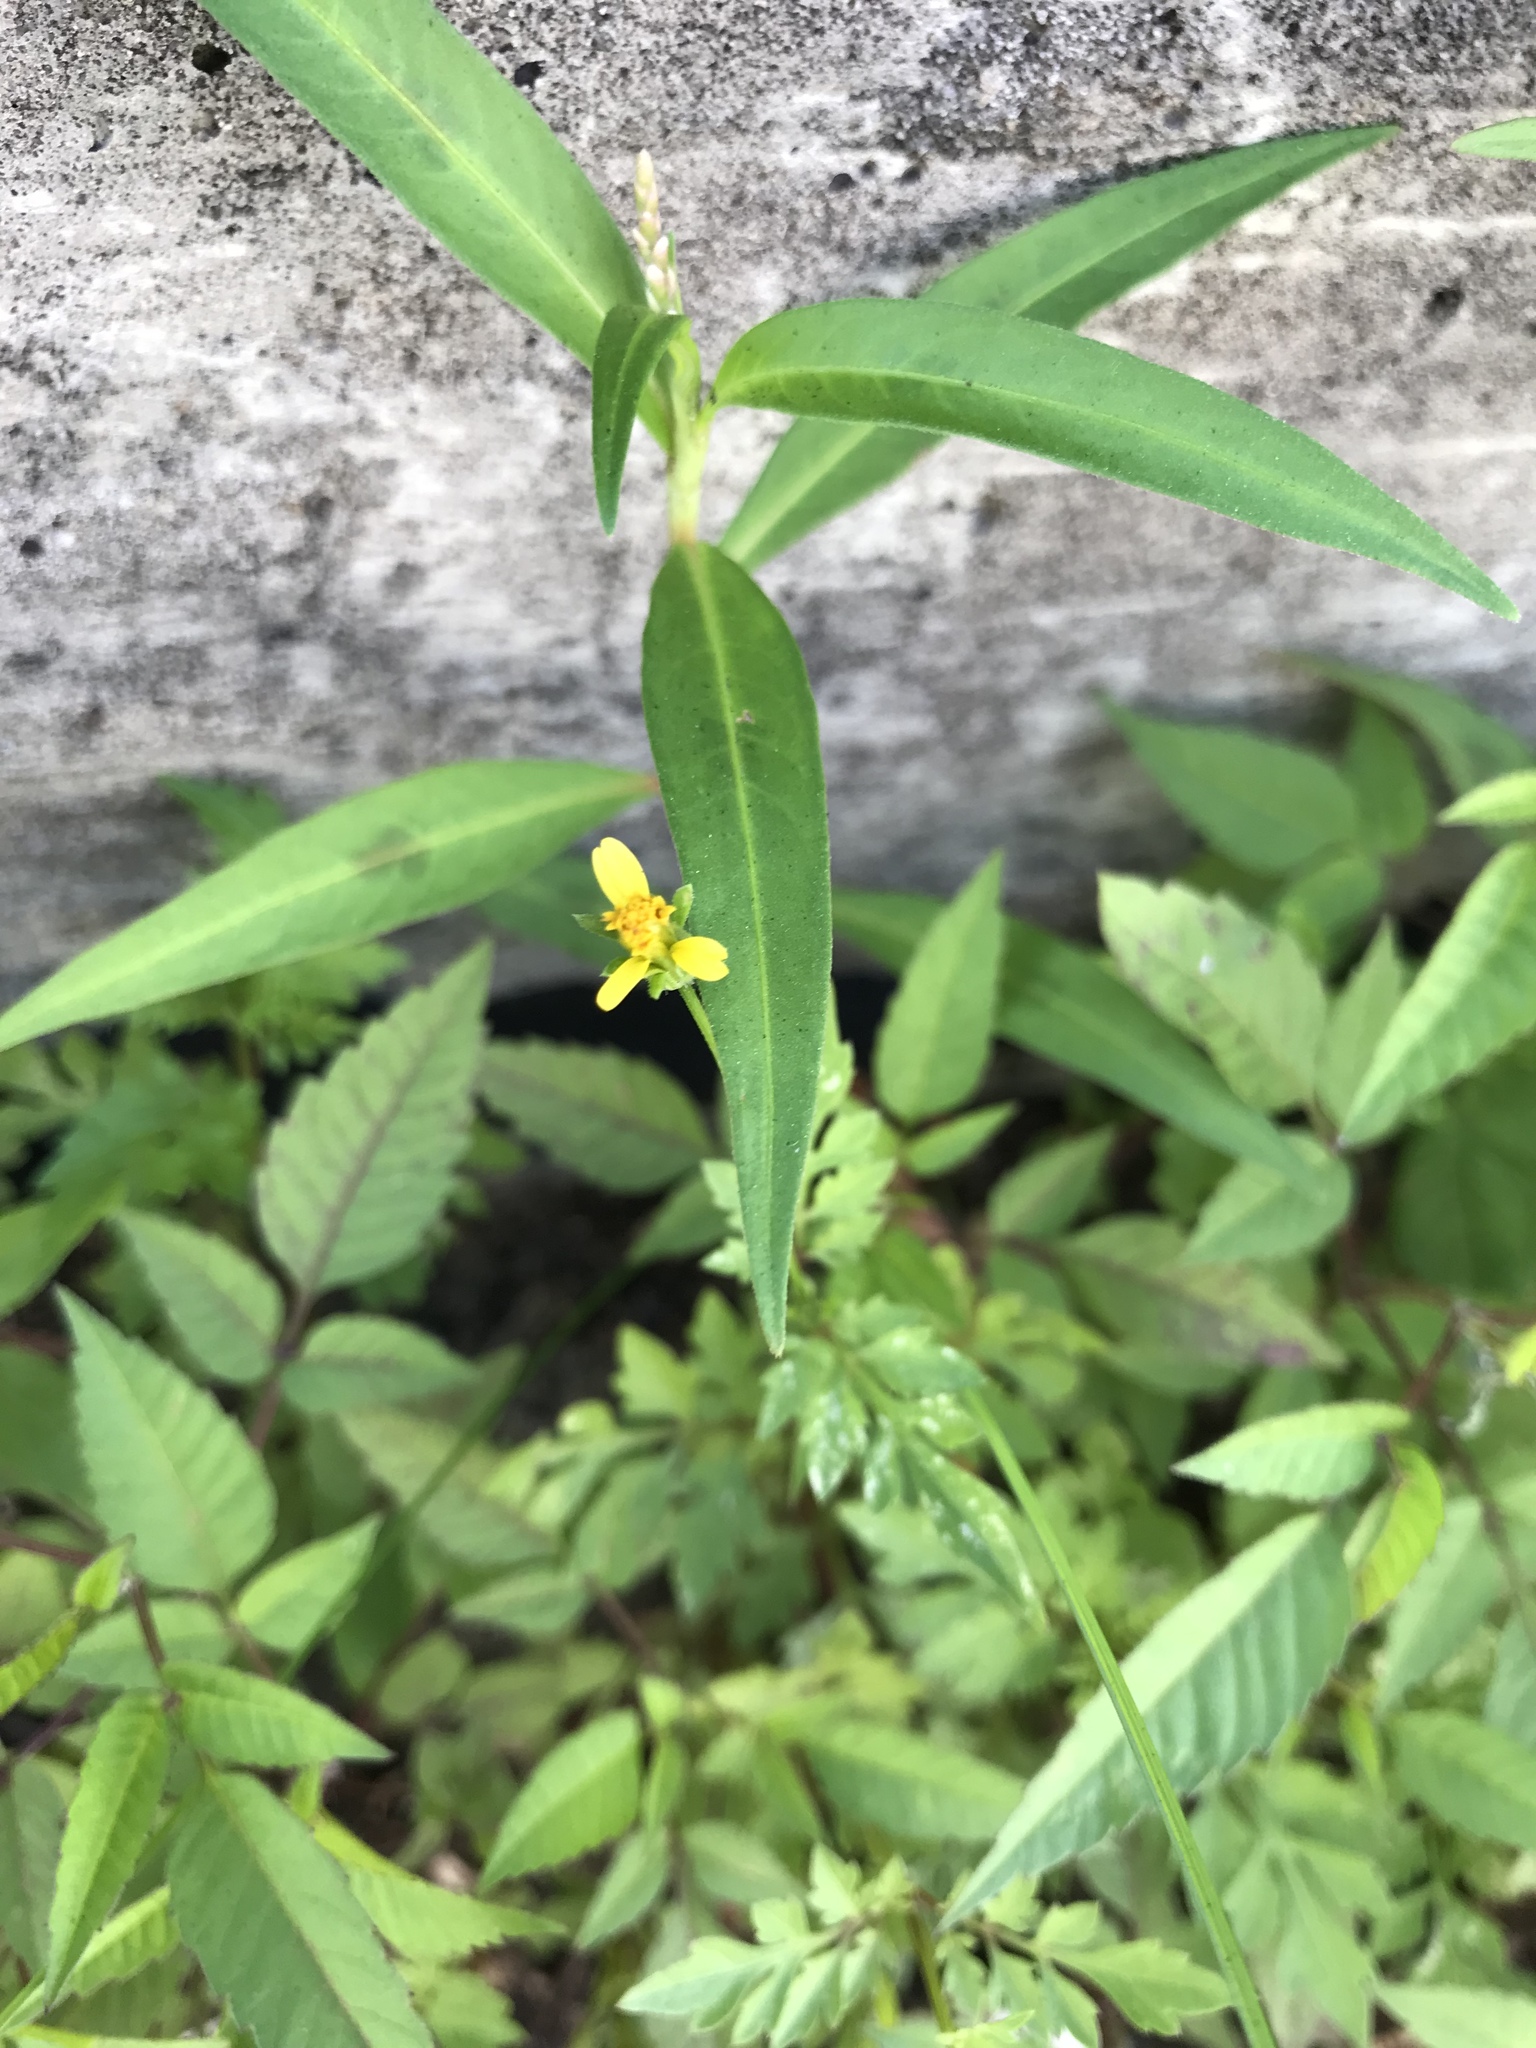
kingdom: Plantae
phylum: Tracheophyta
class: Magnoliopsida
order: Asterales
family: Asteraceae
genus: Bidens
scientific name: Bidens bipinnata
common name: Spanish-needles
